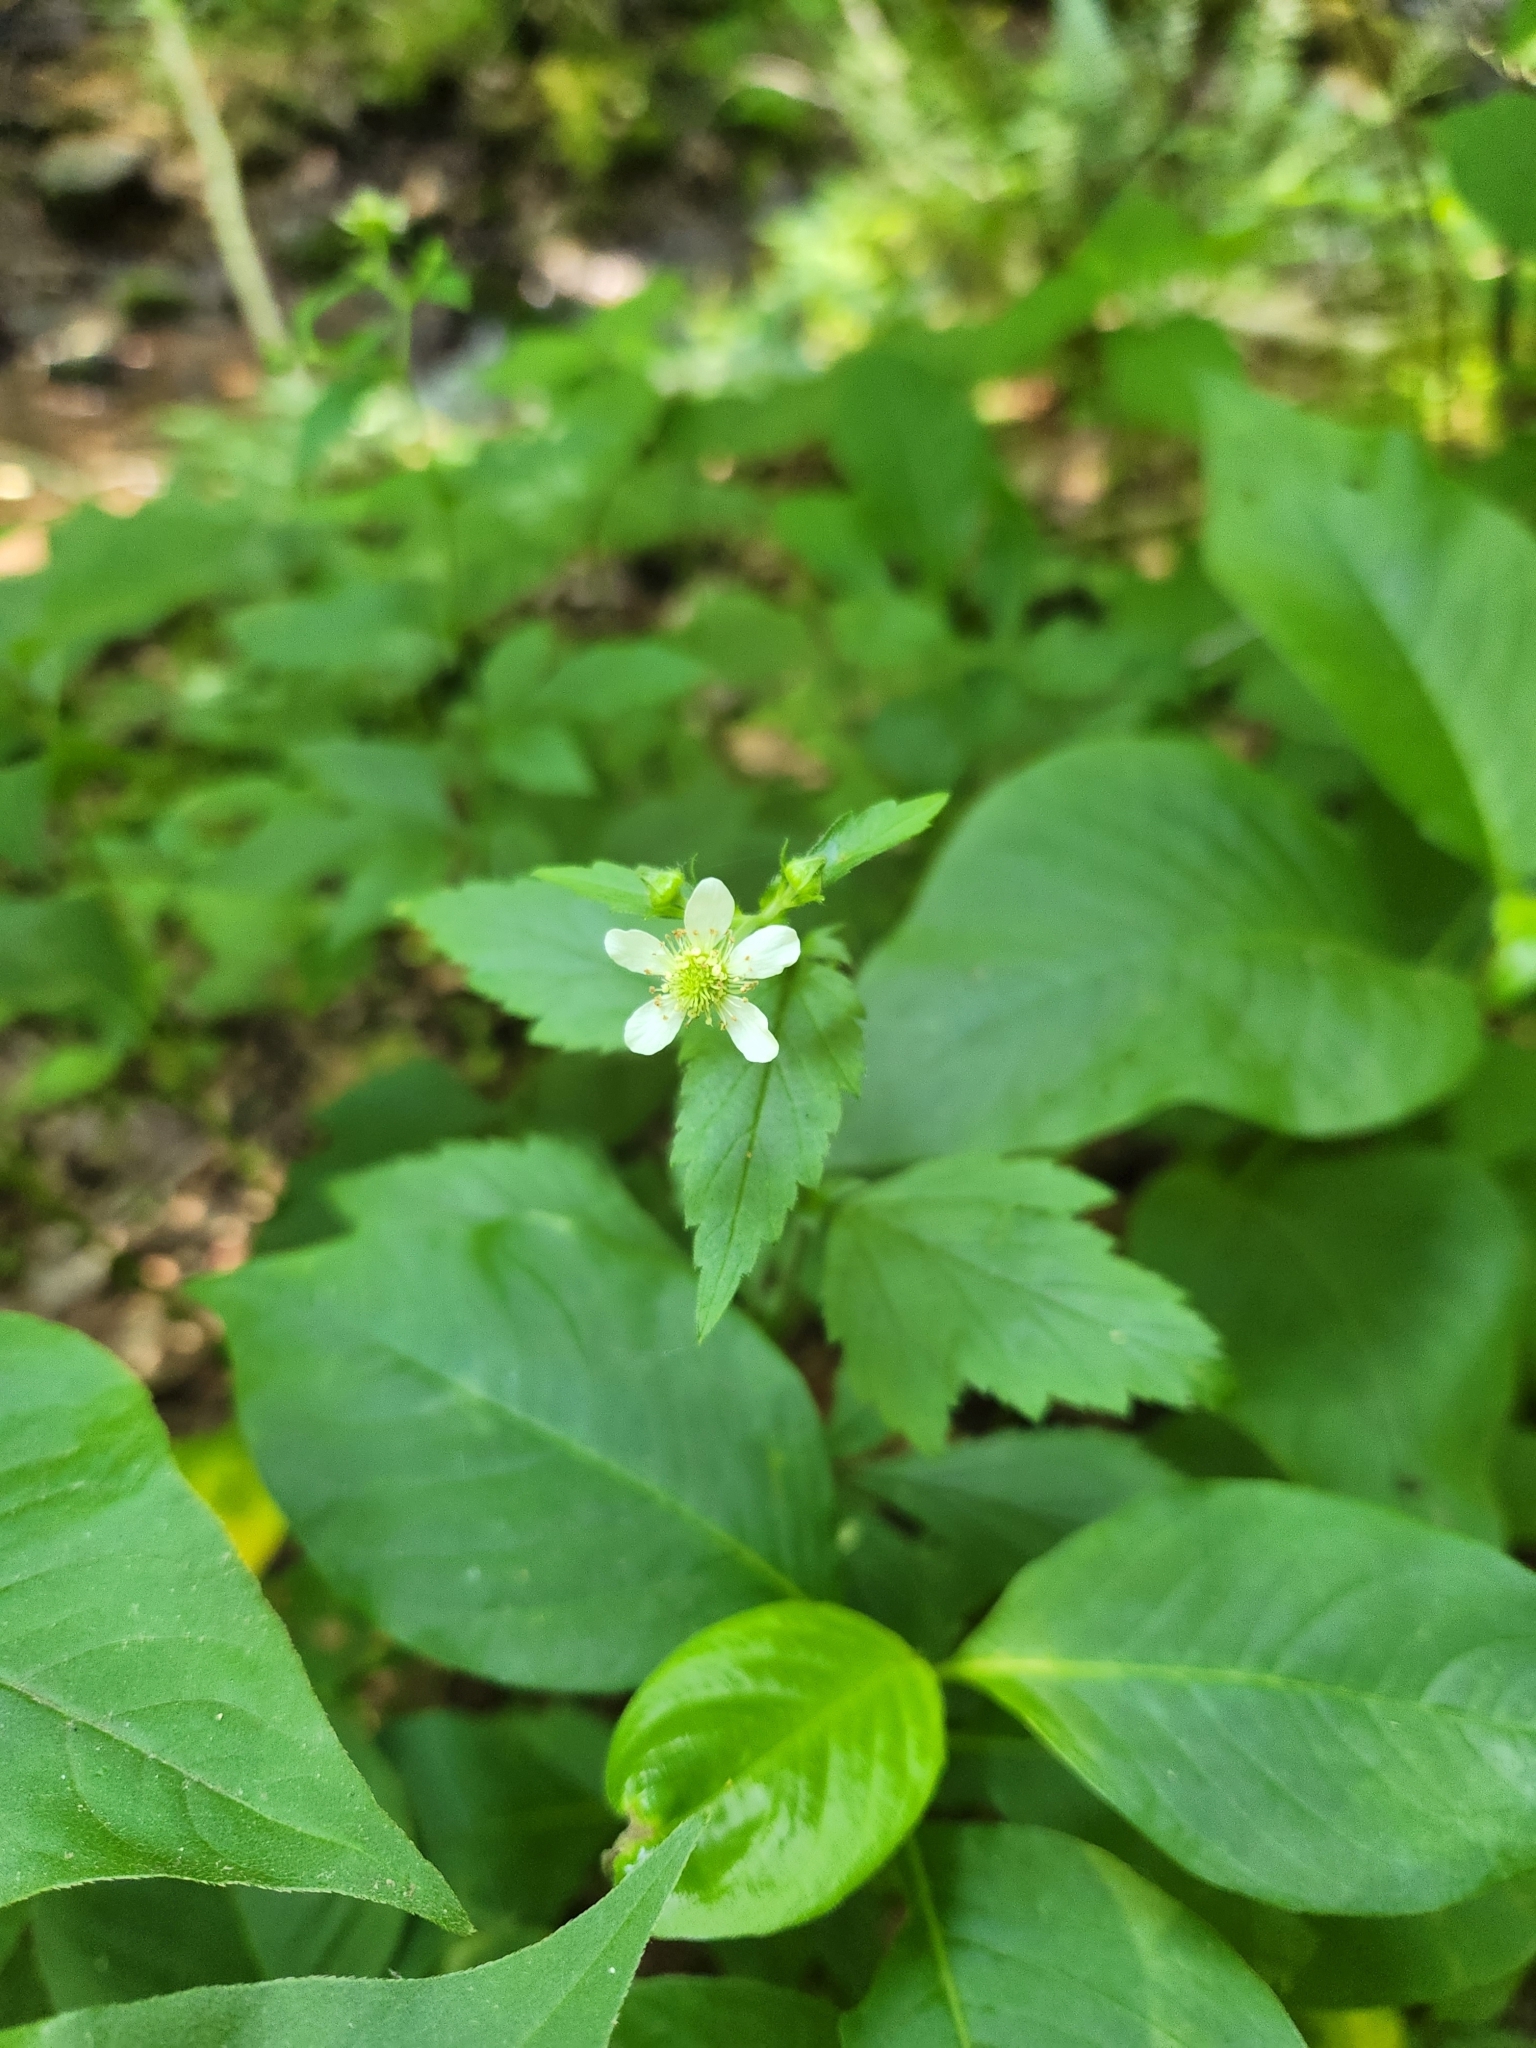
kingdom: Plantae
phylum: Tracheophyta
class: Magnoliopsida
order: Rosales
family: Rosaceae
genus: Geum
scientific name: Geum canadense
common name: White avens
